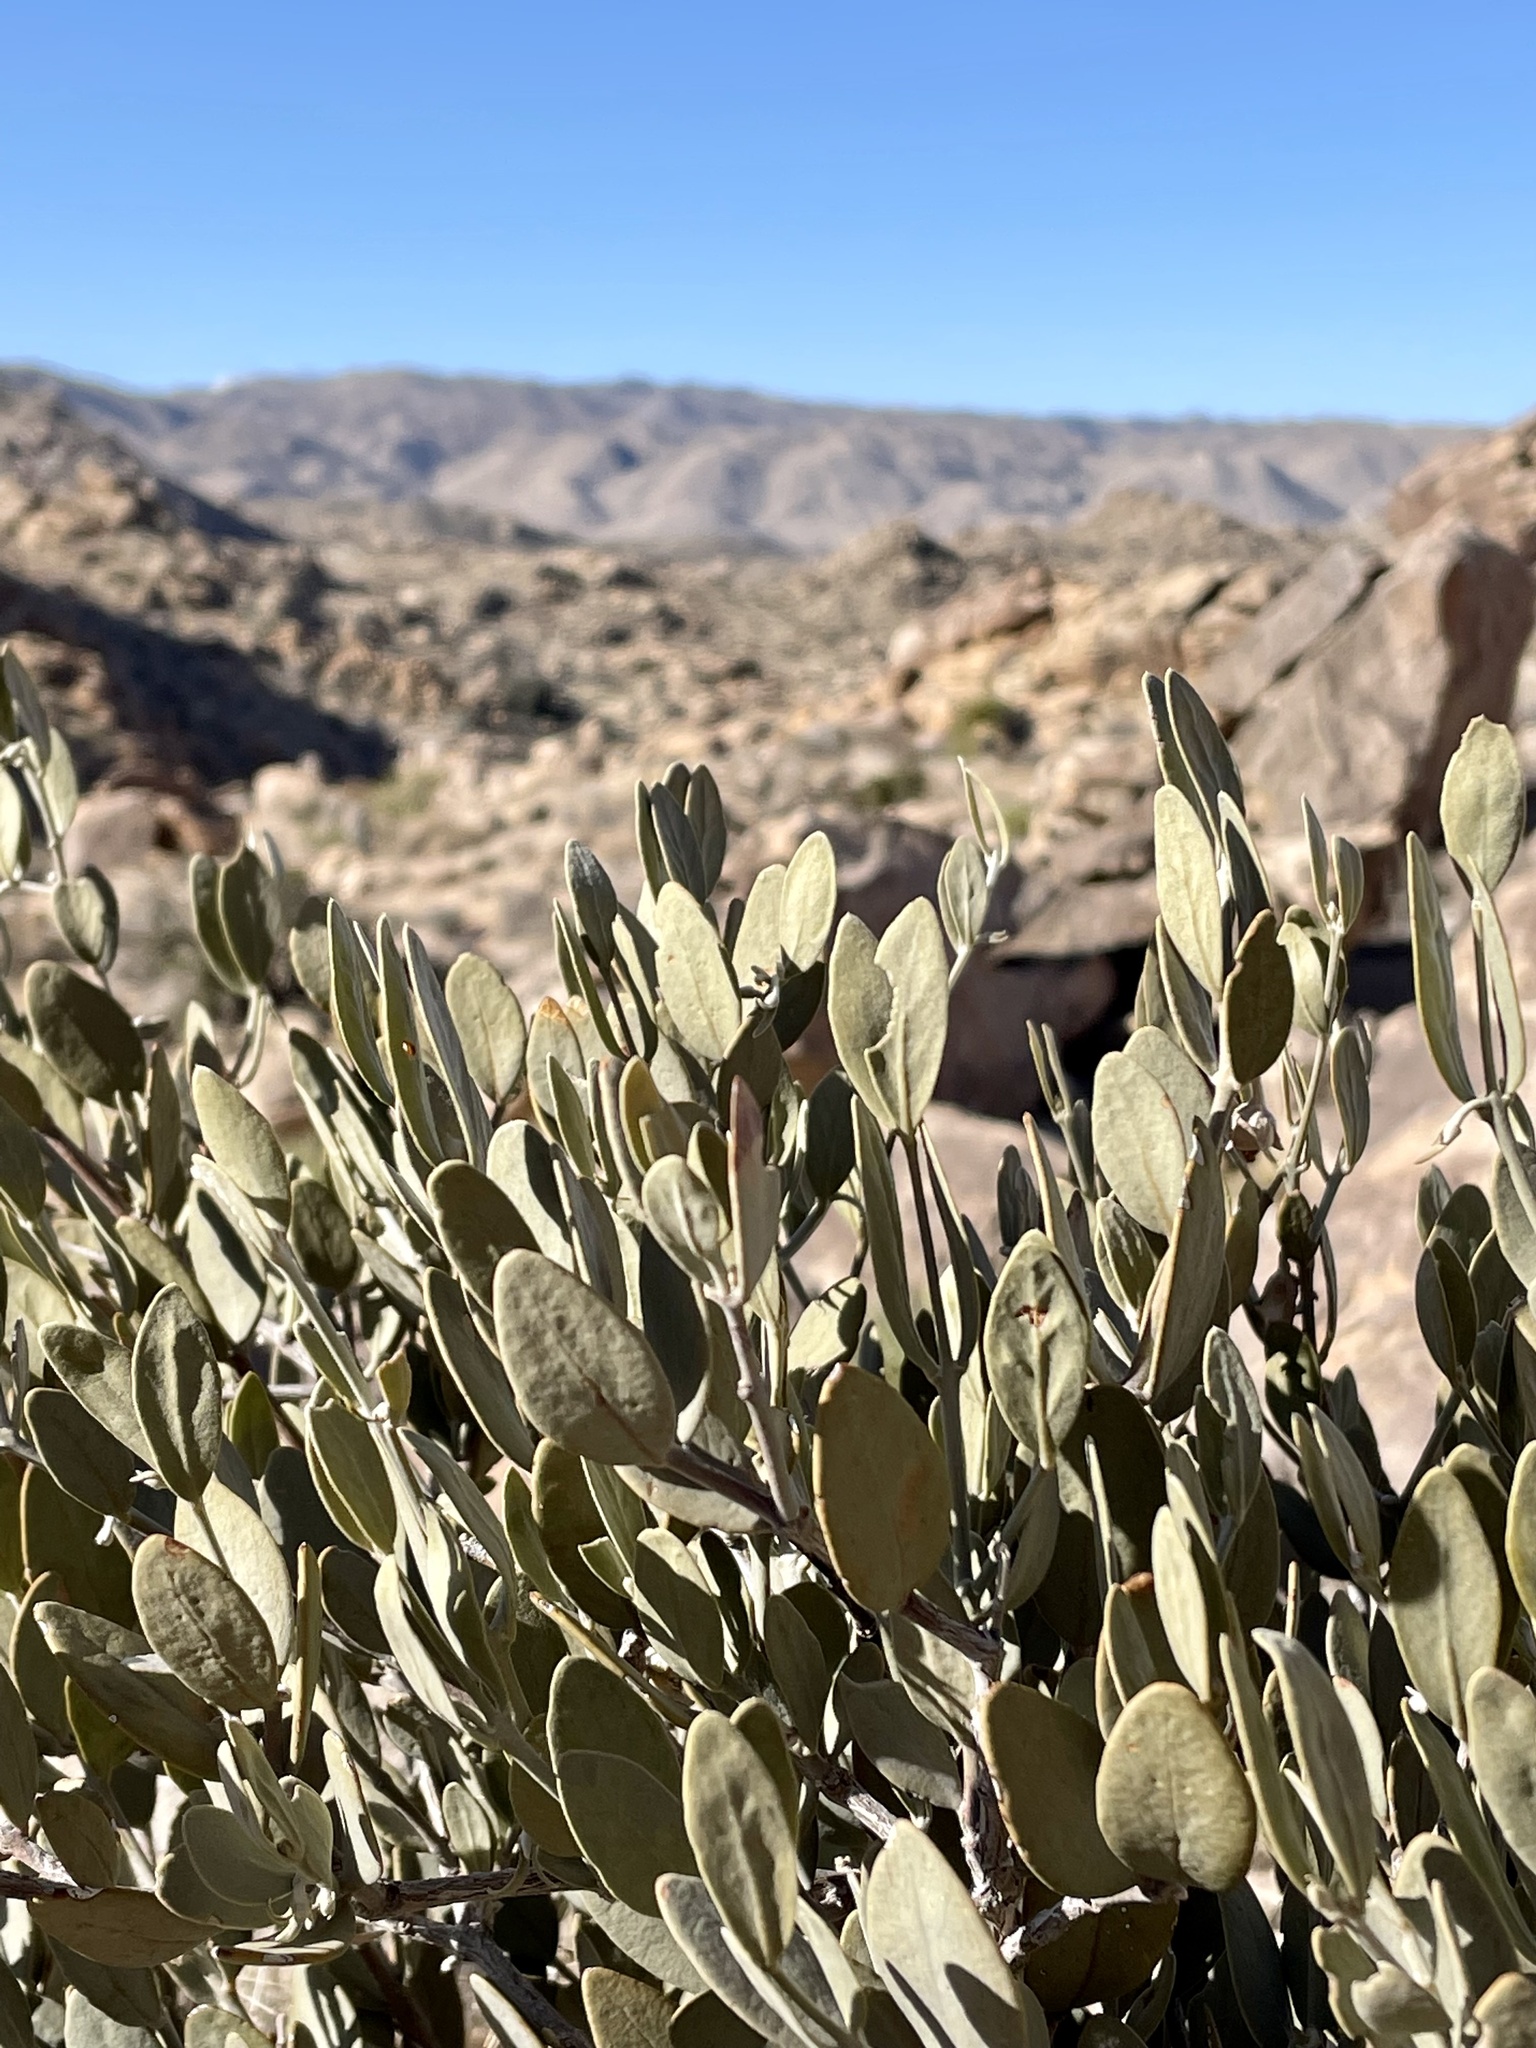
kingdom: Plantae
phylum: Tracheophyta
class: Magnoliopsida
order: Caryophyllales
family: Simmondsiaceae
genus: Simmondsia
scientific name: Simmondsia chinensis
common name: Jojoba
